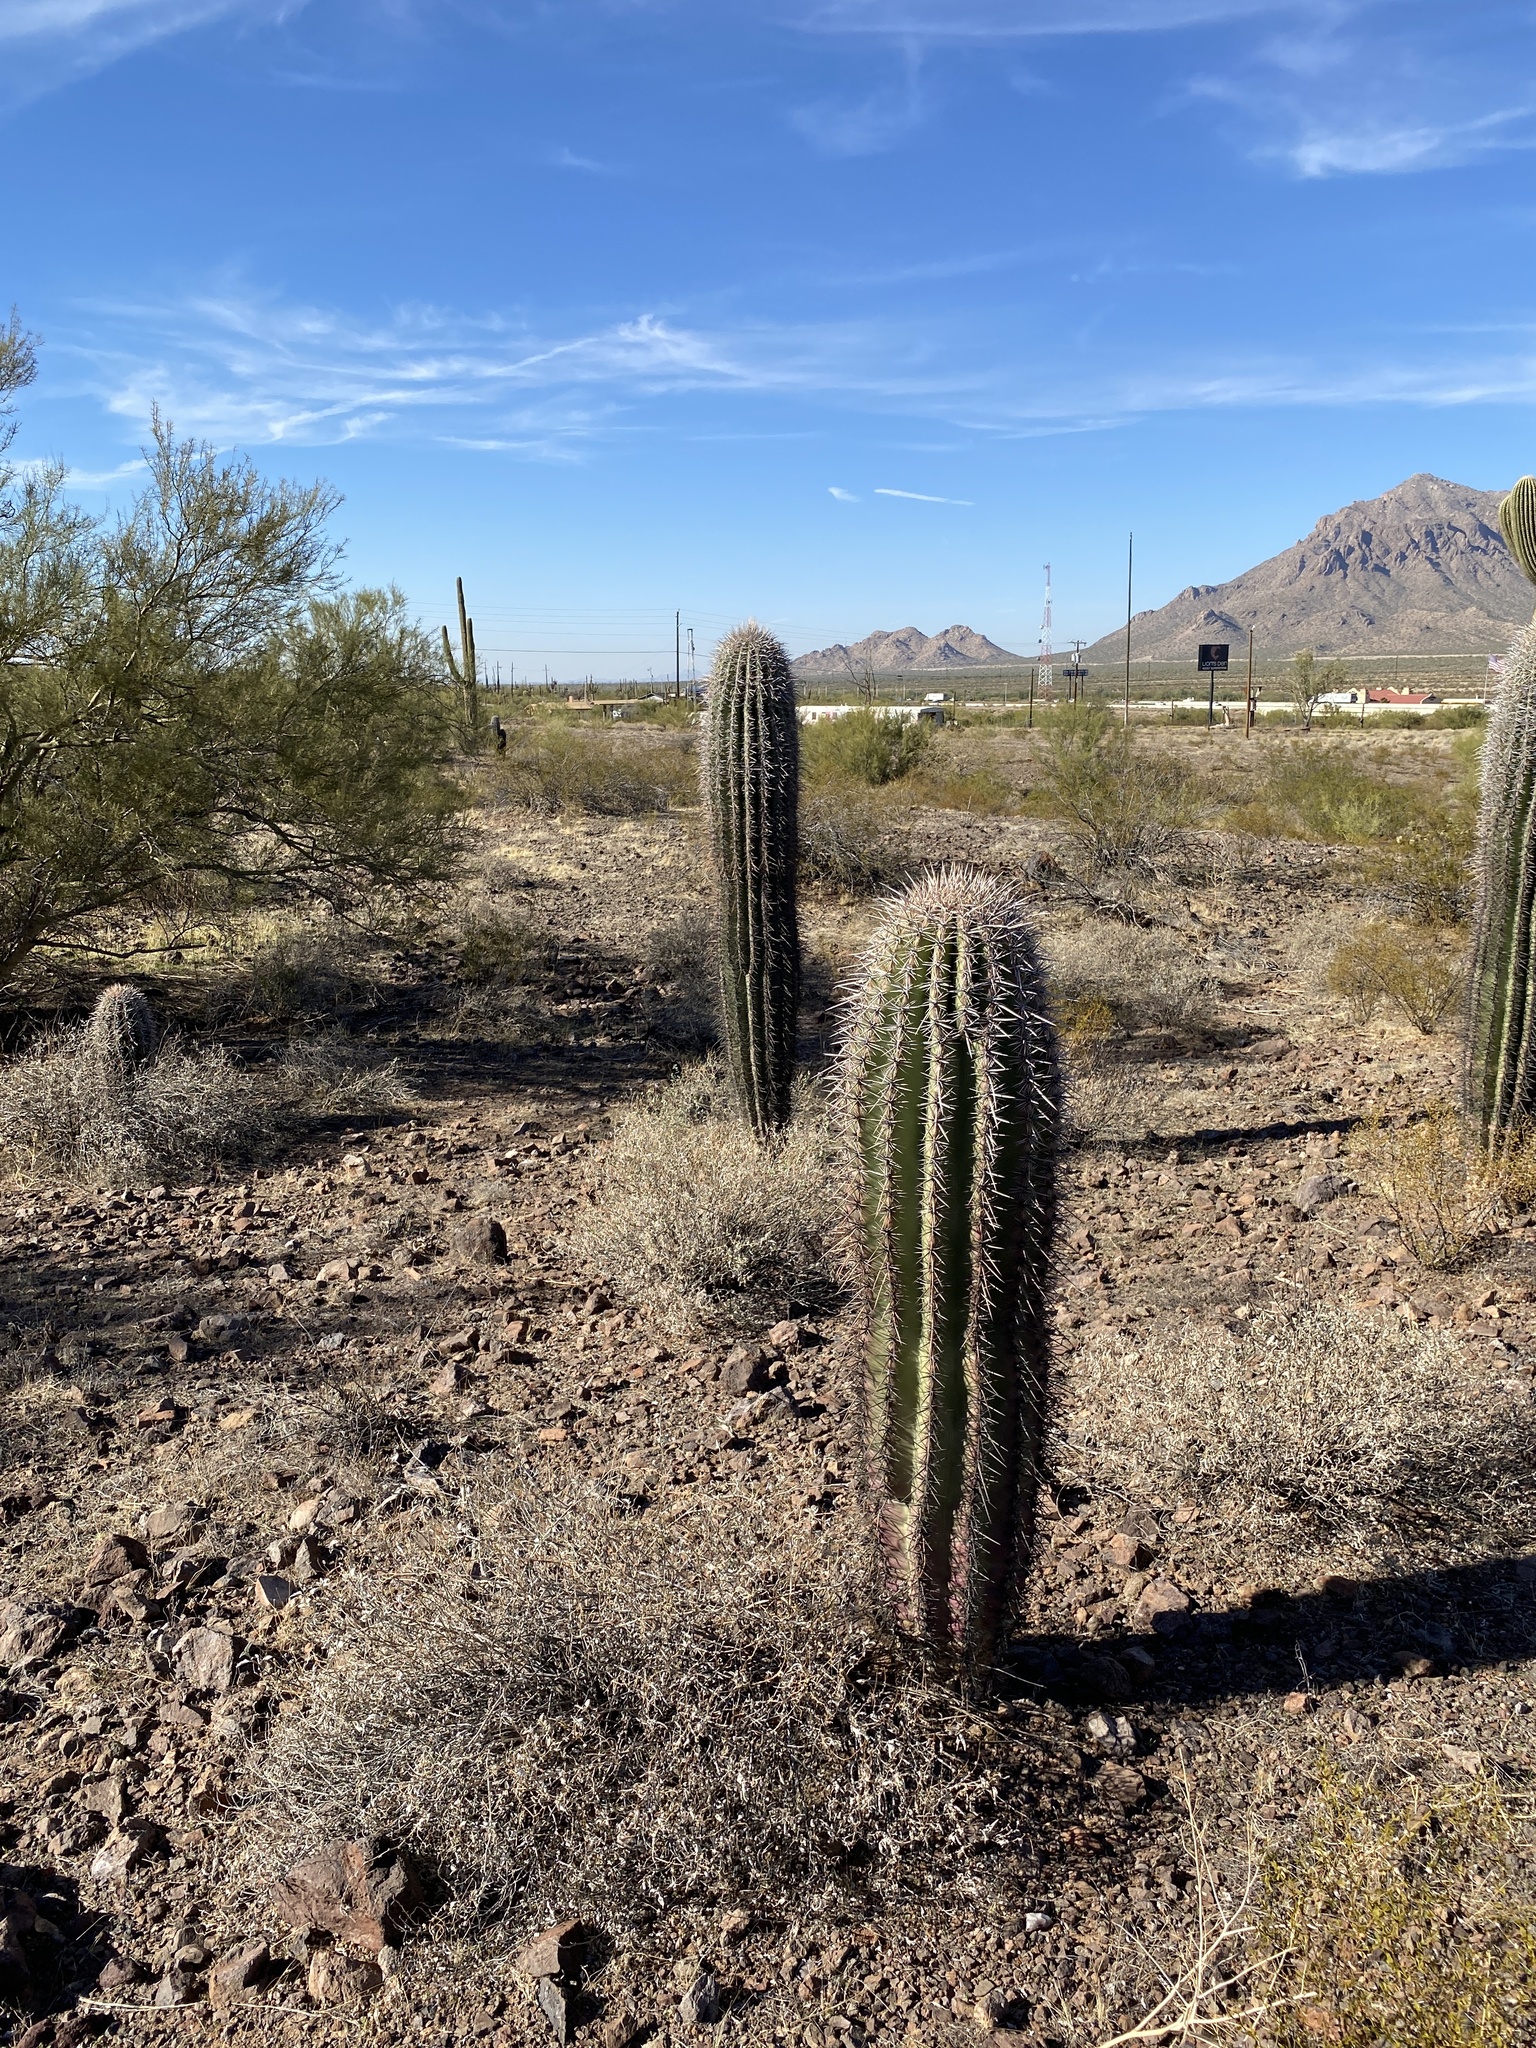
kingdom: Plantae
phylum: Tracheophyta
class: Magnoliopsida
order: Caryophyllales
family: Cactaceae
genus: Carnegiea
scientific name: Carnegiea gigantea
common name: Saguaro
